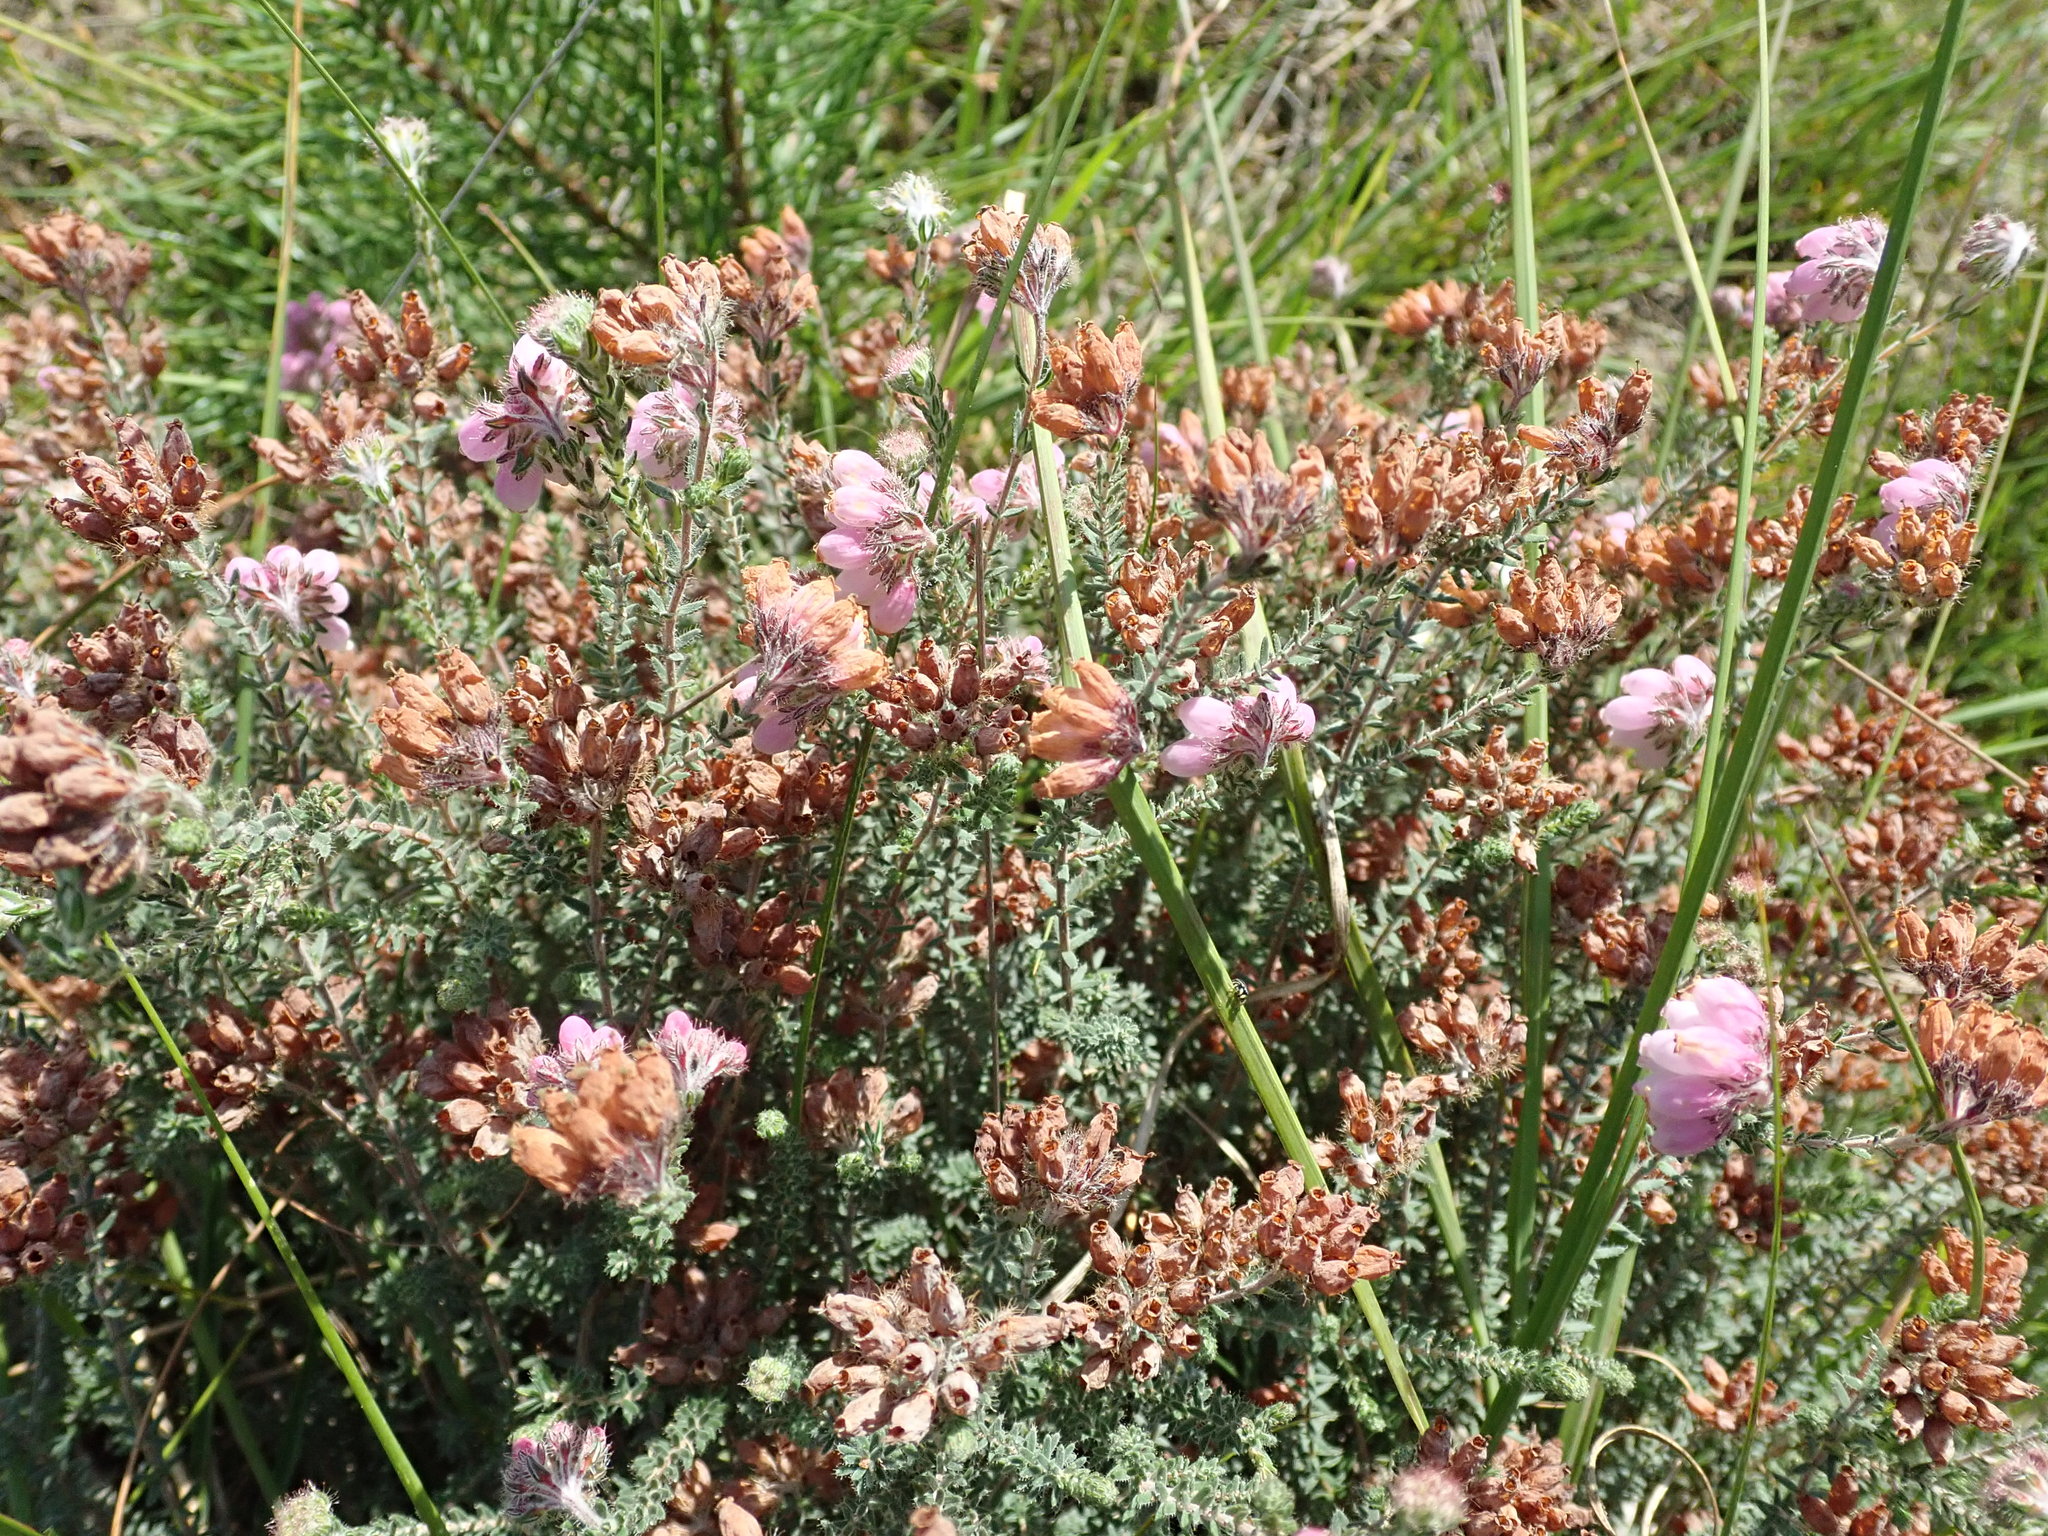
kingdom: Plantae
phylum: Tracheophyta
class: Magnoliopsida
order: Ericales
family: Ericaceae
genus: Erica
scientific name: Erica tetralix
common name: Cross-leaved heath
